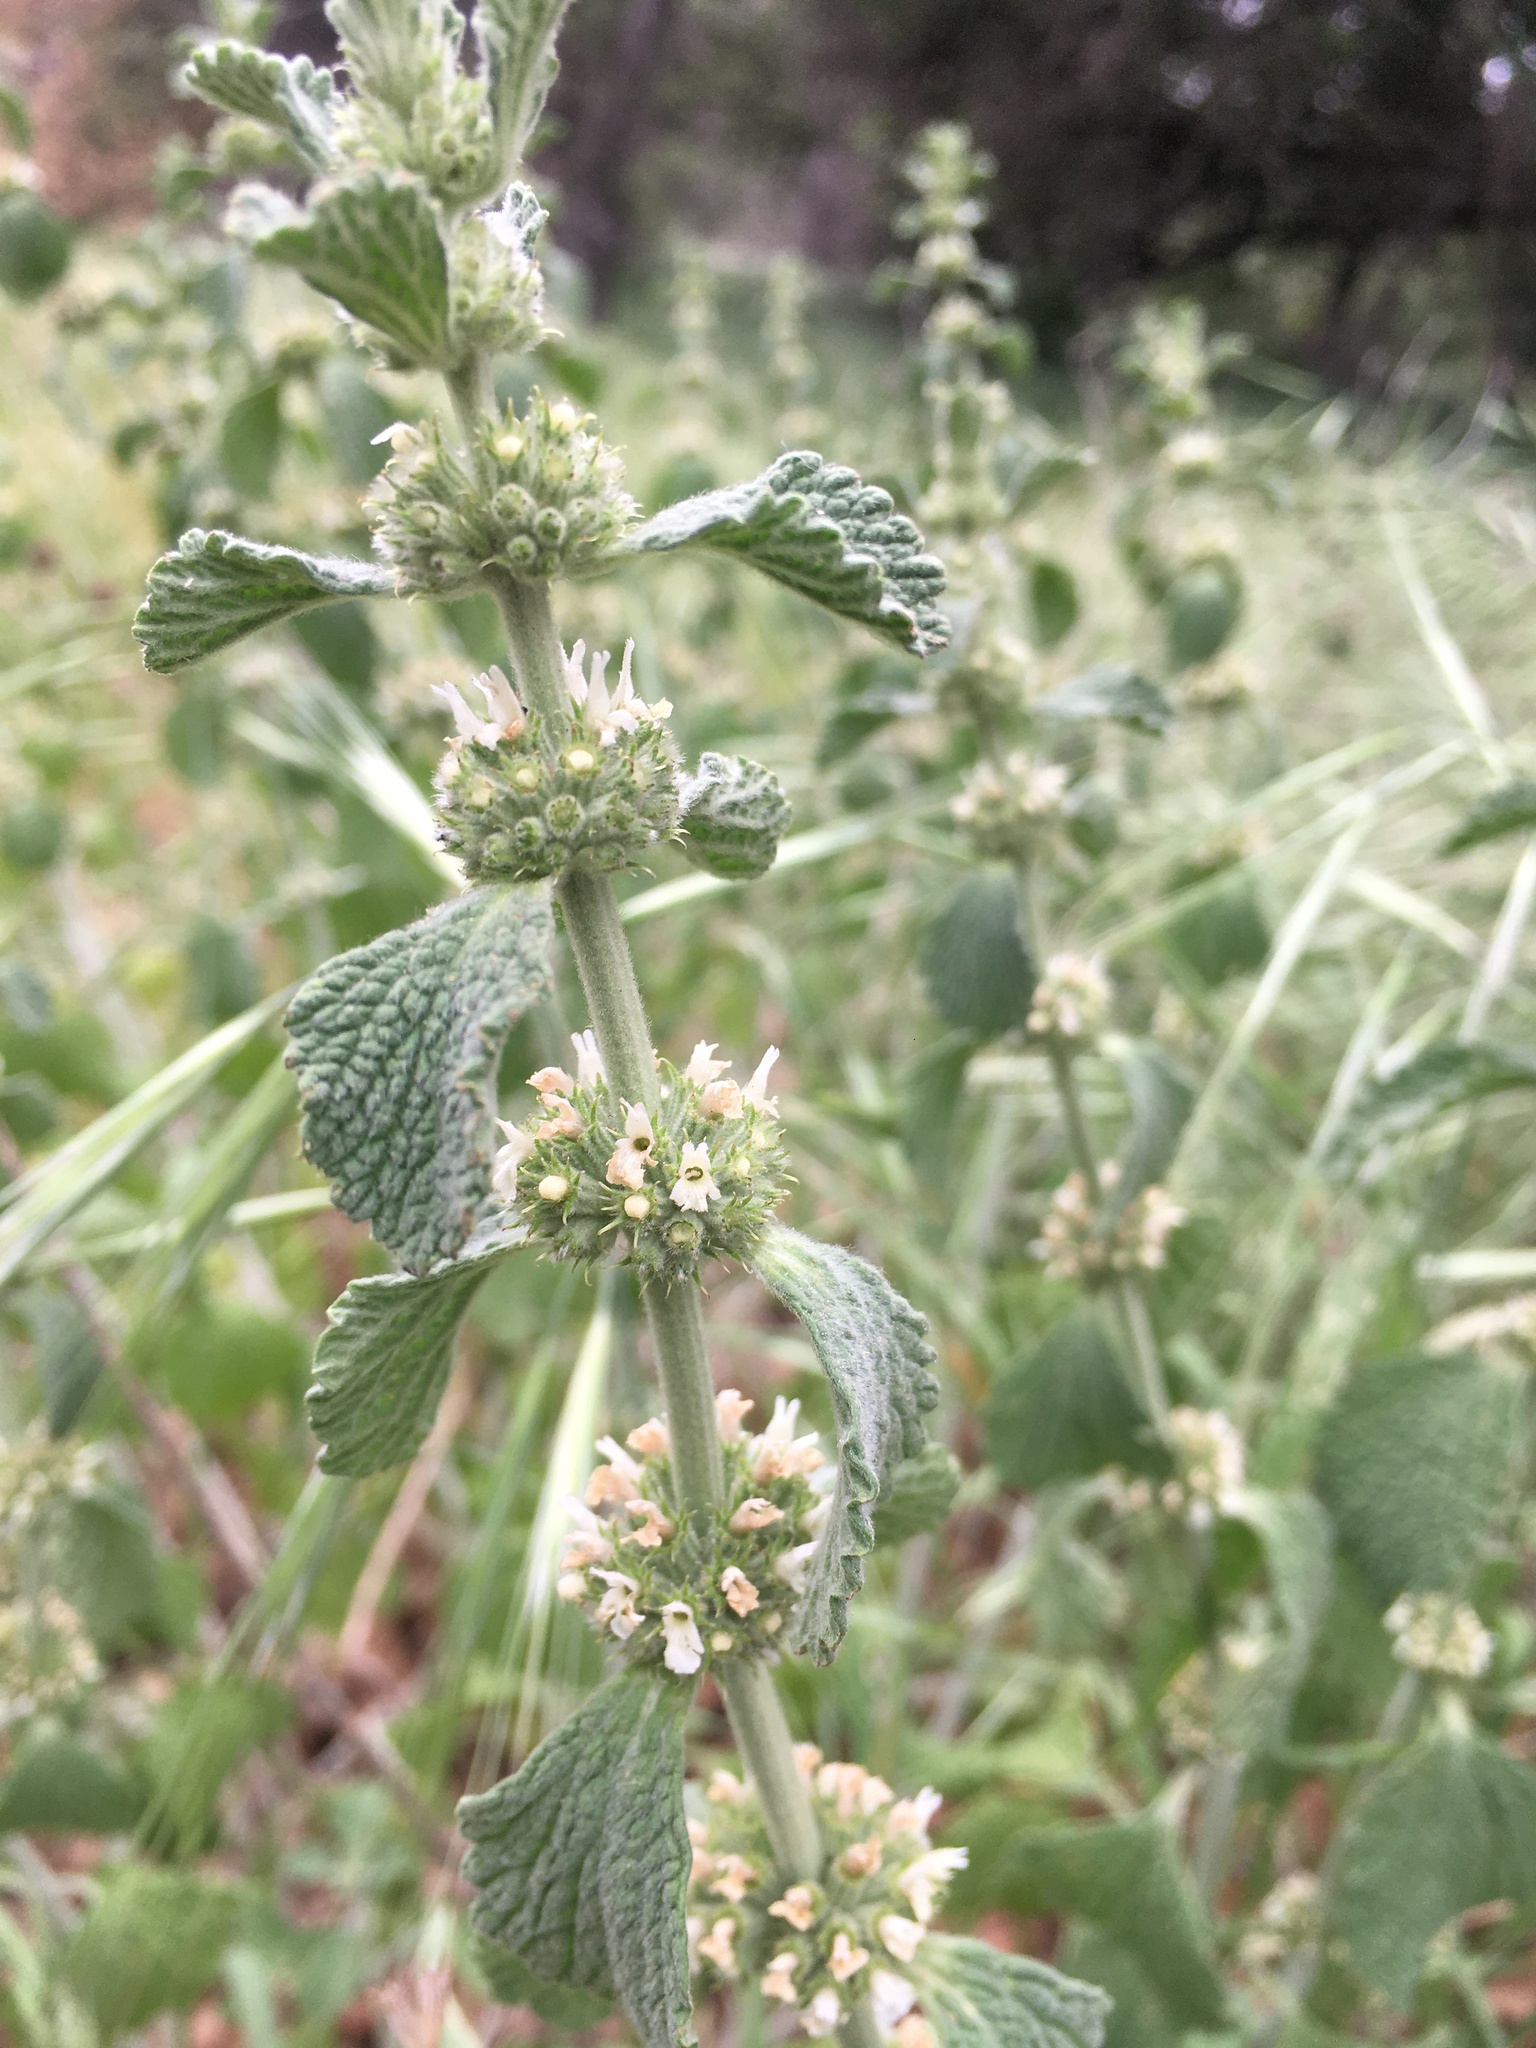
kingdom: Plantae
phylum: Tracheophyta
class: Magnoliopsida
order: Lamiales
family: Lamiaceae
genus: Marrubium
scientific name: Marrubium vulgare
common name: Horehound
